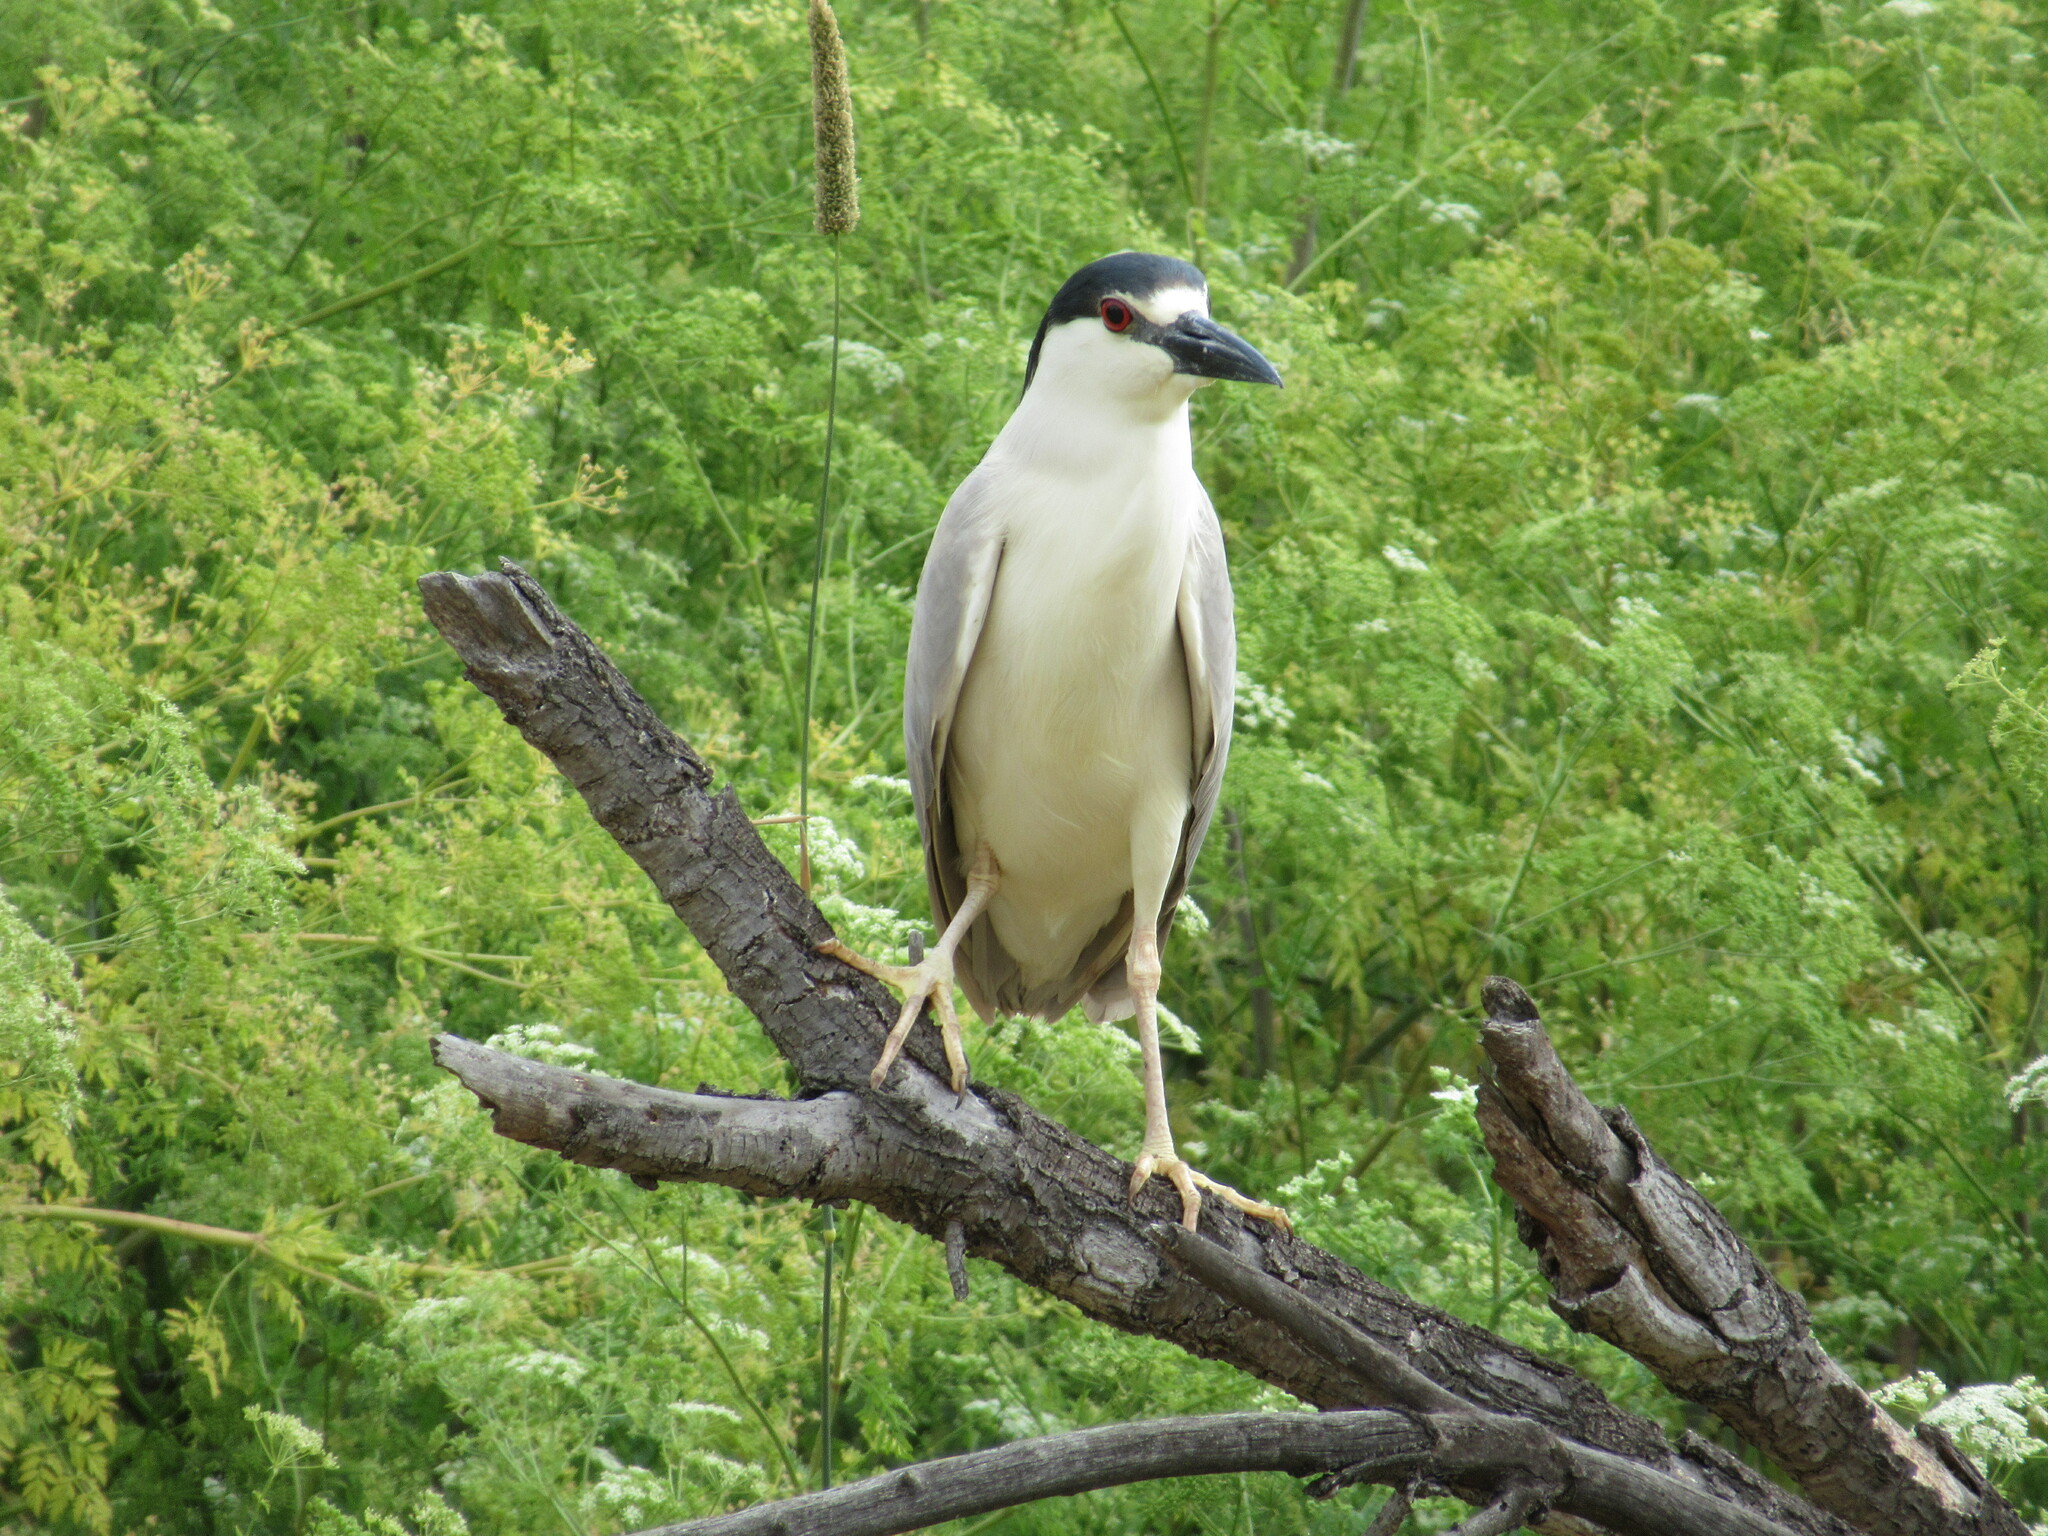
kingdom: Animalia
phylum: Chordata
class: Aves
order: Pelecaniformes
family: Ardeidae
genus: Nycticorax
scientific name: Nycticorax nycticorax
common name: Black-crowned night heron
